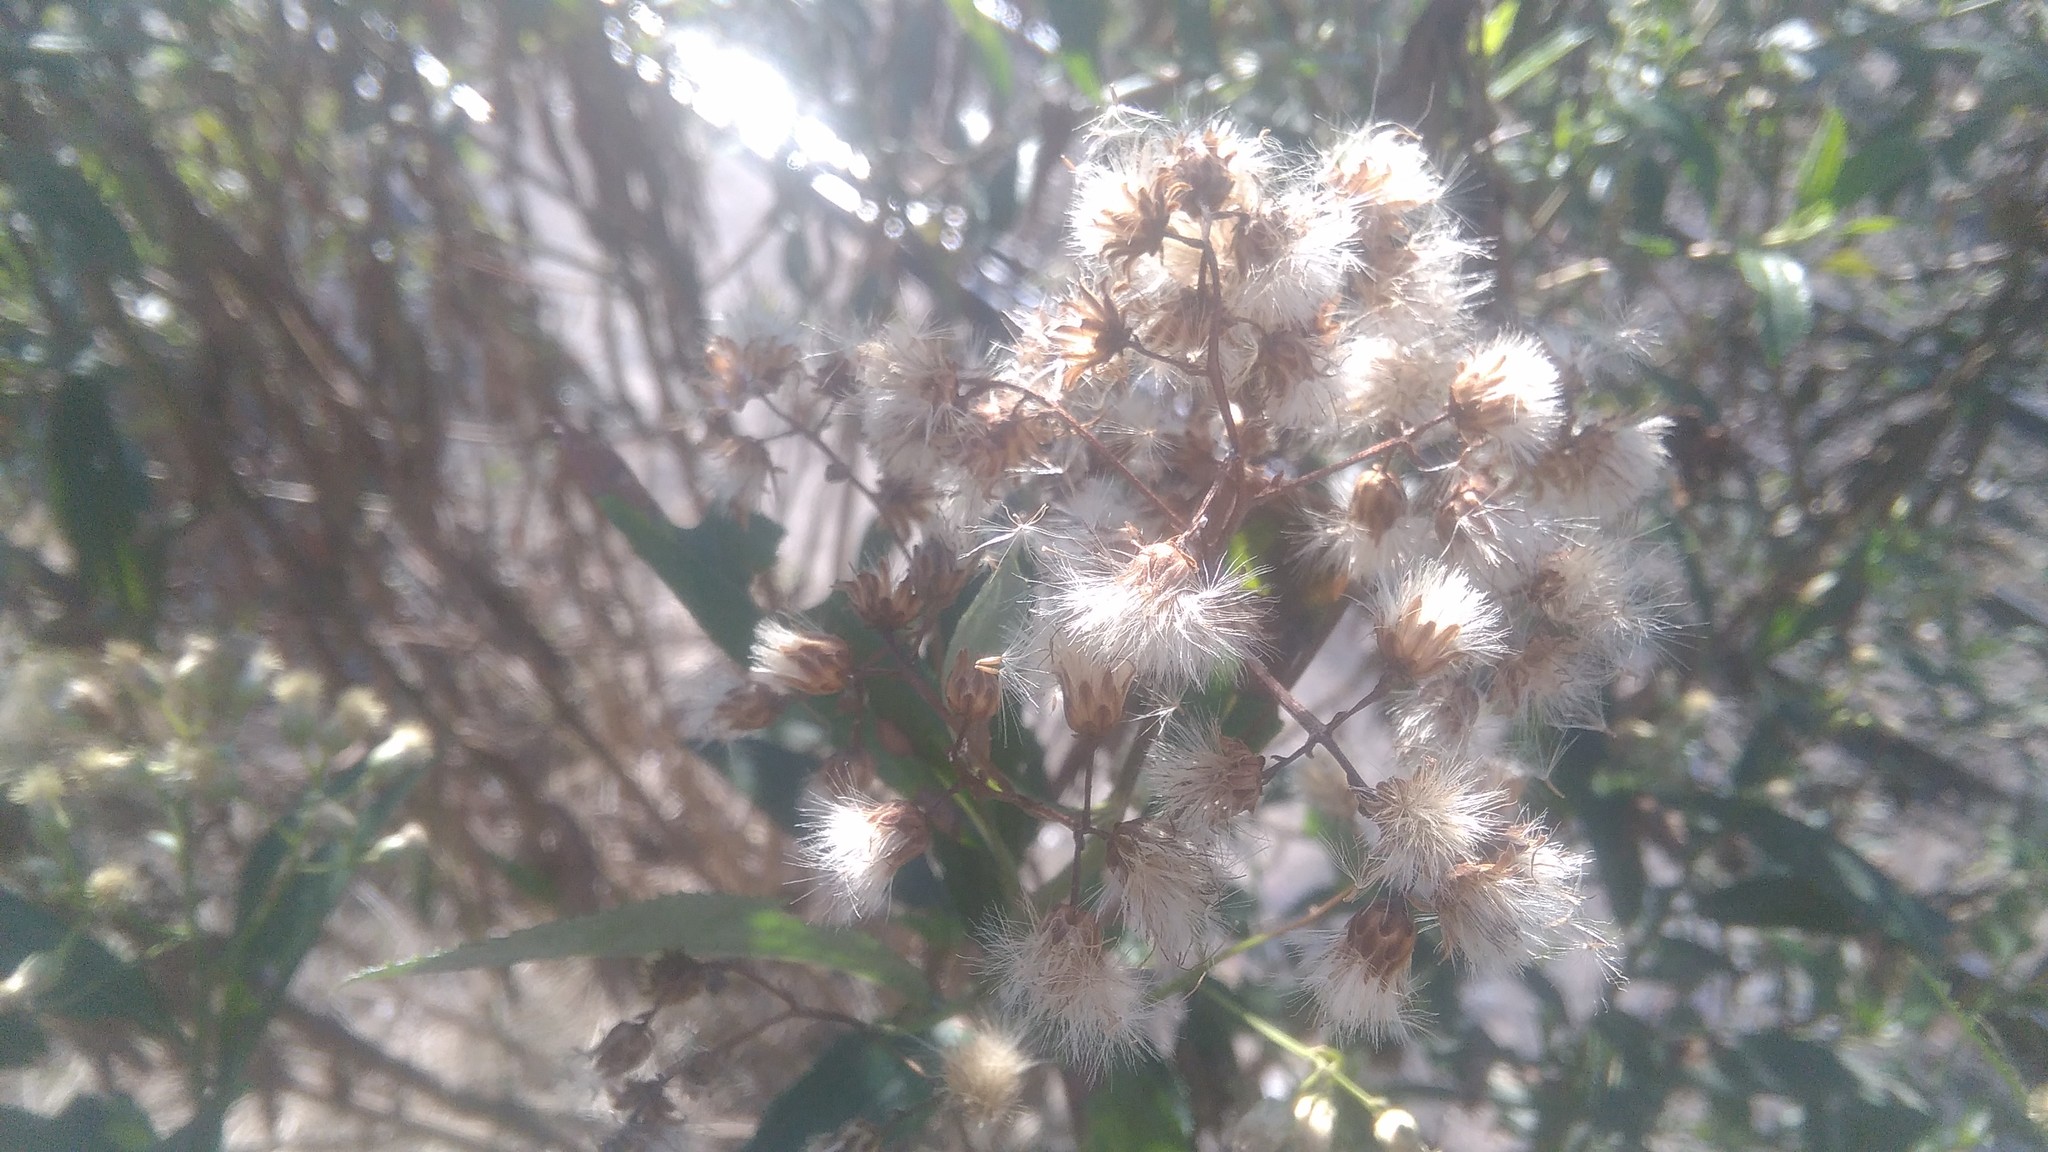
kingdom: Plantae
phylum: Tracheophyta
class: Magnoliopsida
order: Asterales
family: Asteraceae
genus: Baccharis
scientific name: Baccharis punctulata
